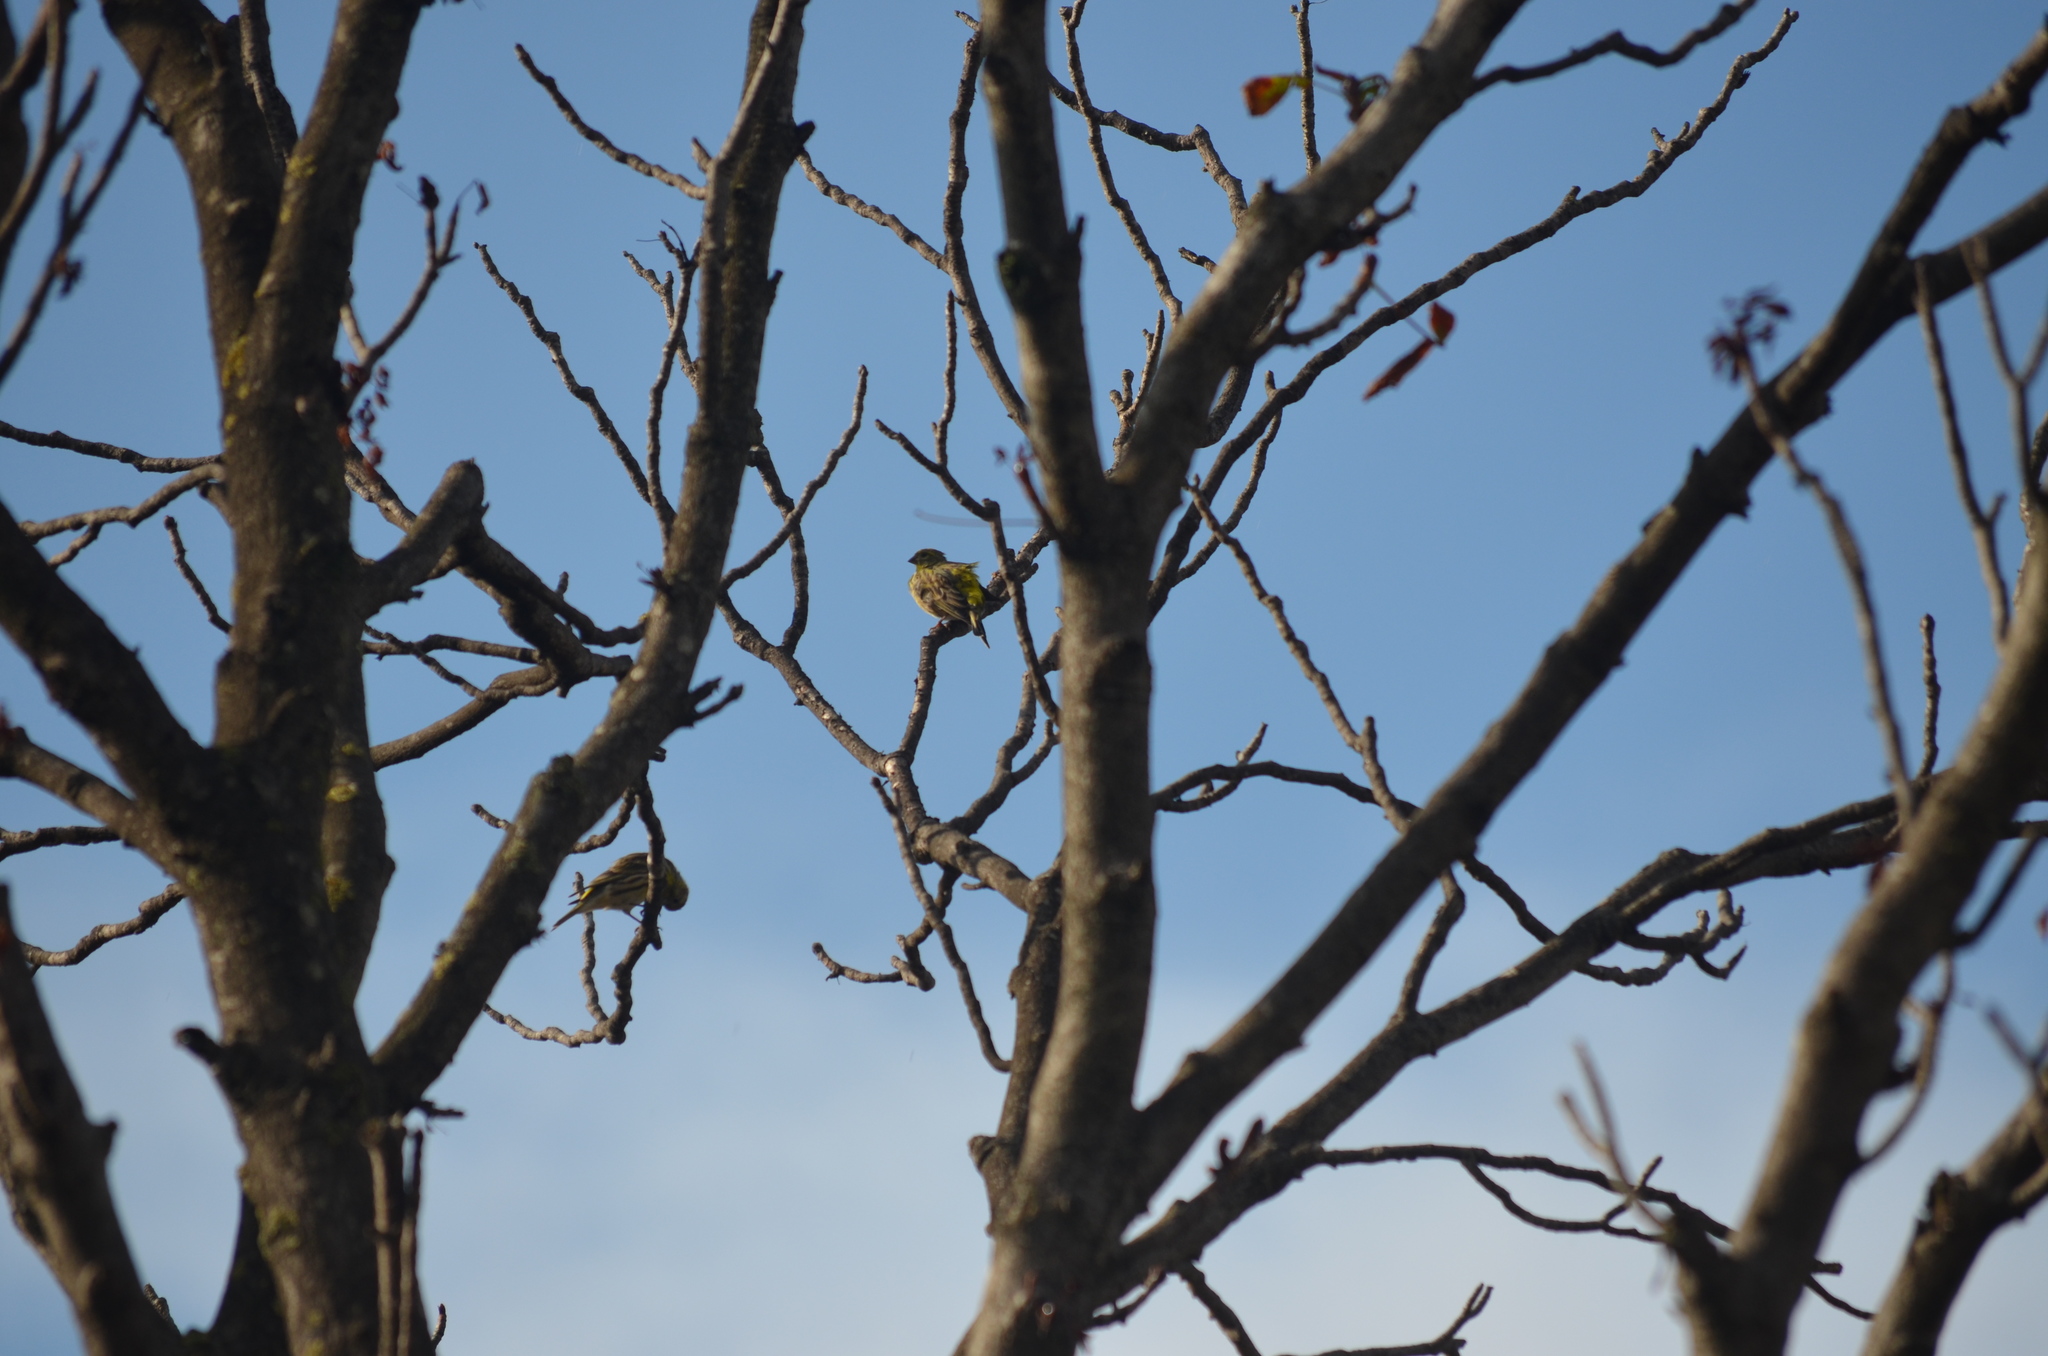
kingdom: Animalia
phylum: Chordata
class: Aves
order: Passeriformes
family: Fringillidae
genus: Serinus
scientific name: Serinus serinus
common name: European serin
